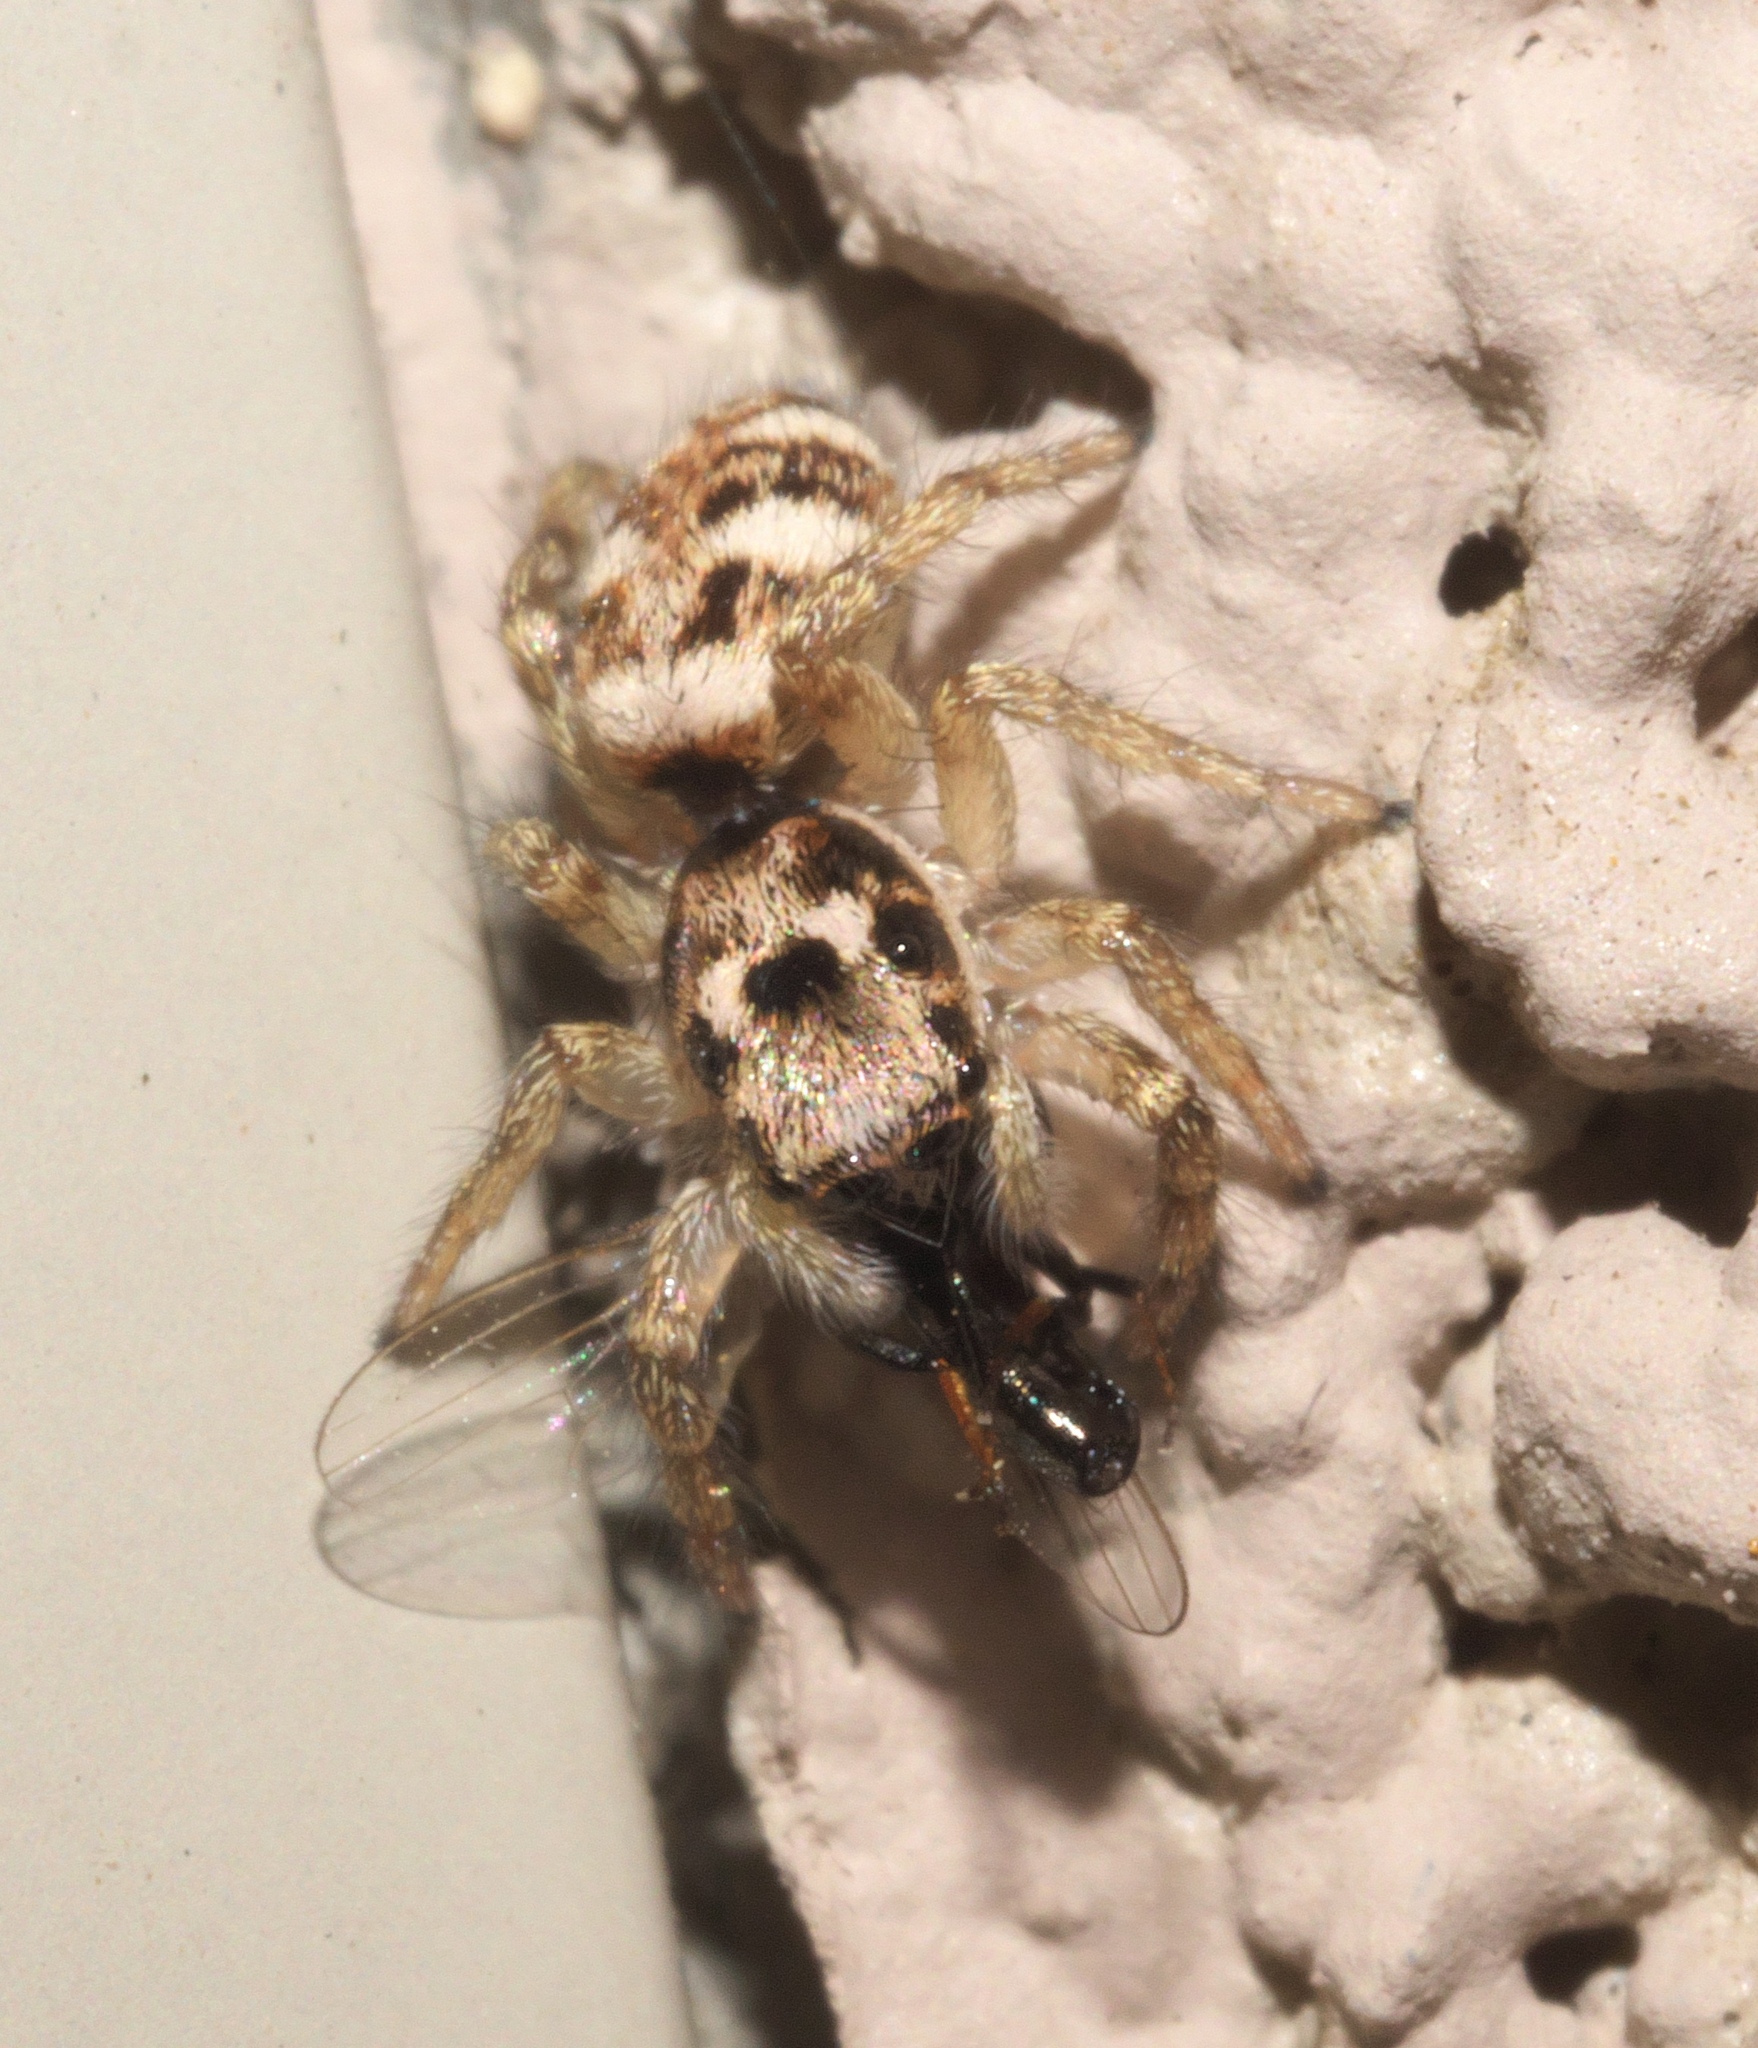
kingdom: Animalia
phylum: Arthropoda
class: Arachnida
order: Araneae
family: Salticidae
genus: Salticus
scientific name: Salticus scenicus
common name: Zebra jumper
